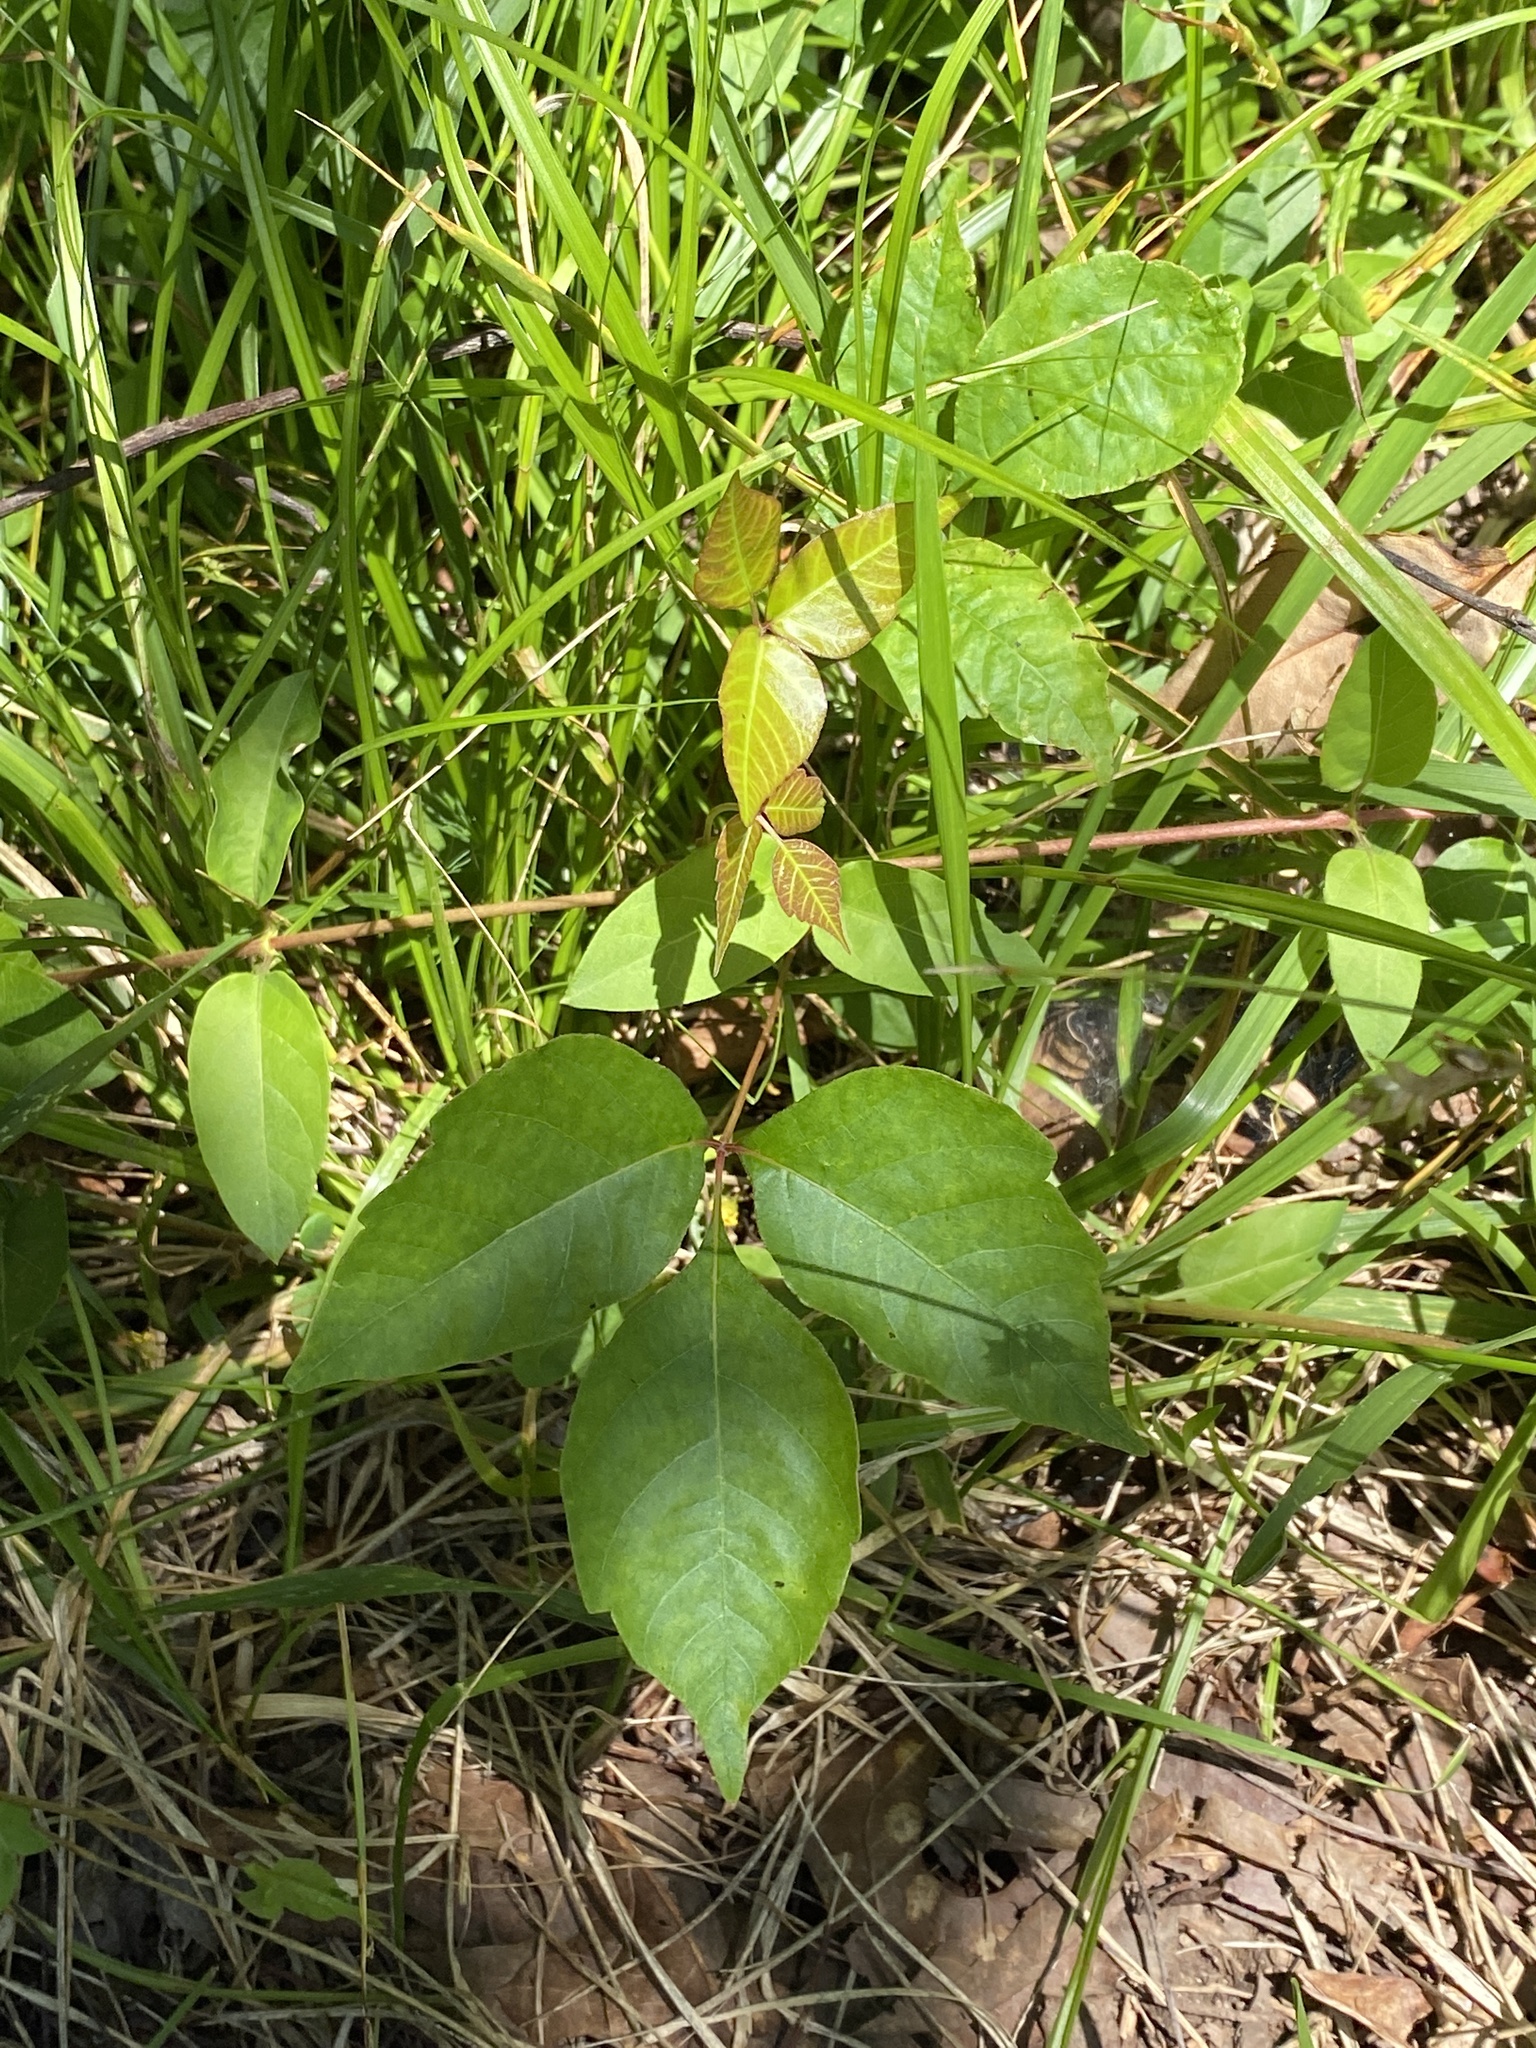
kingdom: Plantae
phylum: Tracheophyta
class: Magnoliopsida
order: Sapindales
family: Anacardiaceae
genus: Toxicodendron
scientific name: Toxicodendron radicans
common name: Poison ivy
